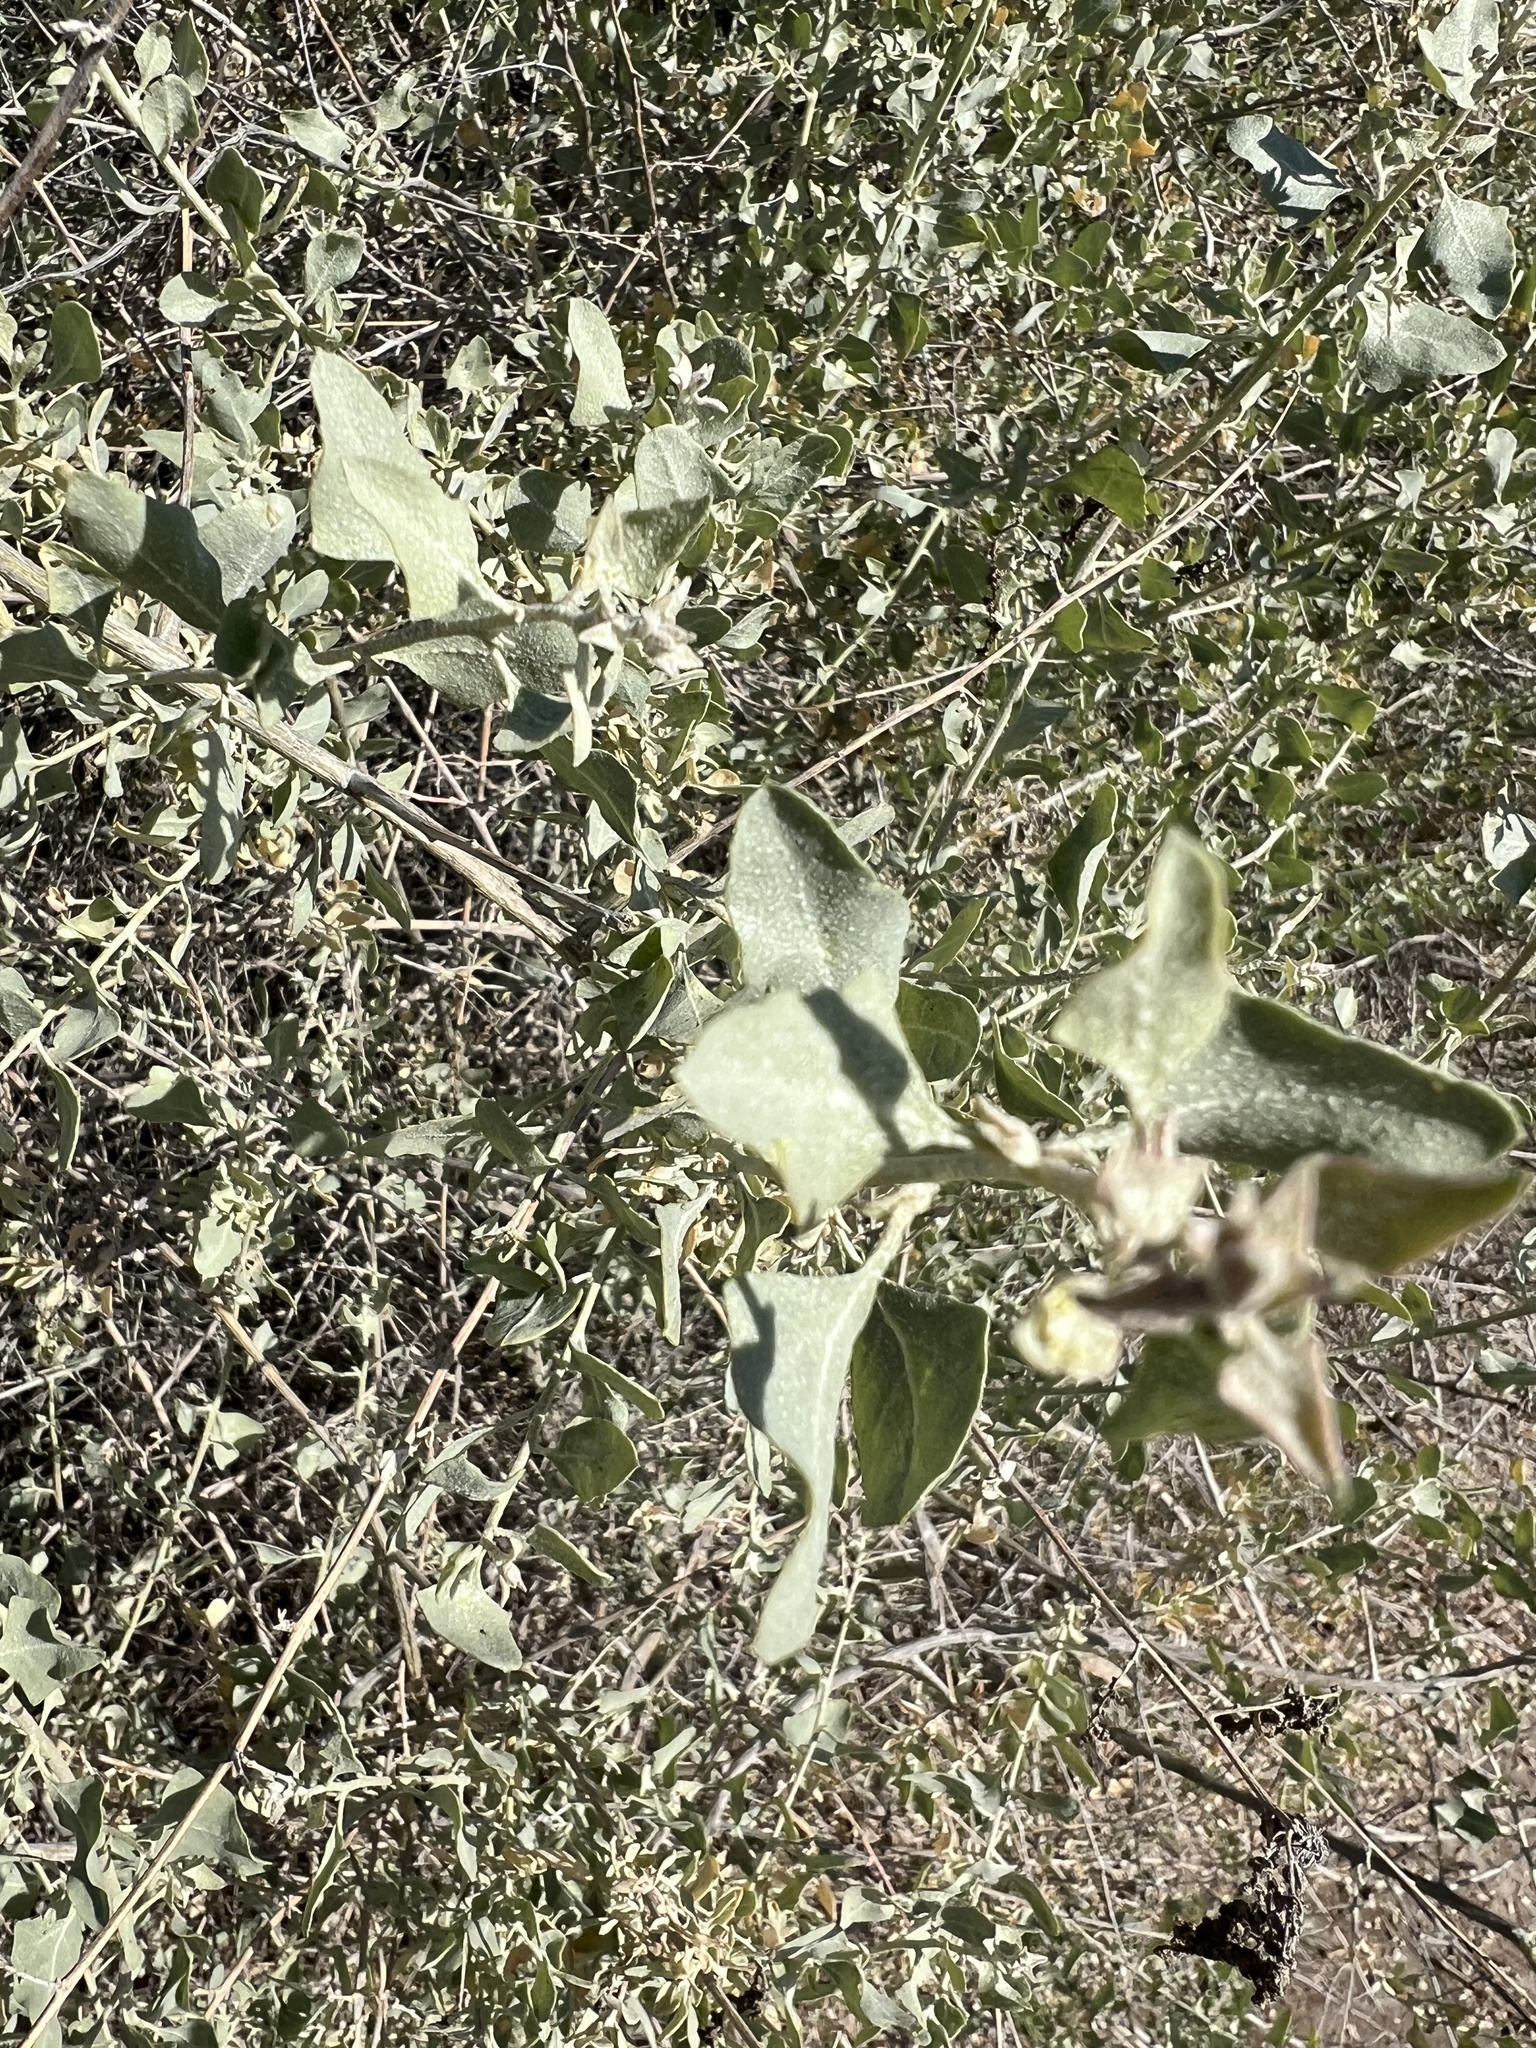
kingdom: Plantae
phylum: Tracheophyta
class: Magnoliopsida
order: Caryophyllales
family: Amaranthaceae
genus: Atriplex
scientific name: Atriplex lentiformis
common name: Big saltbush
